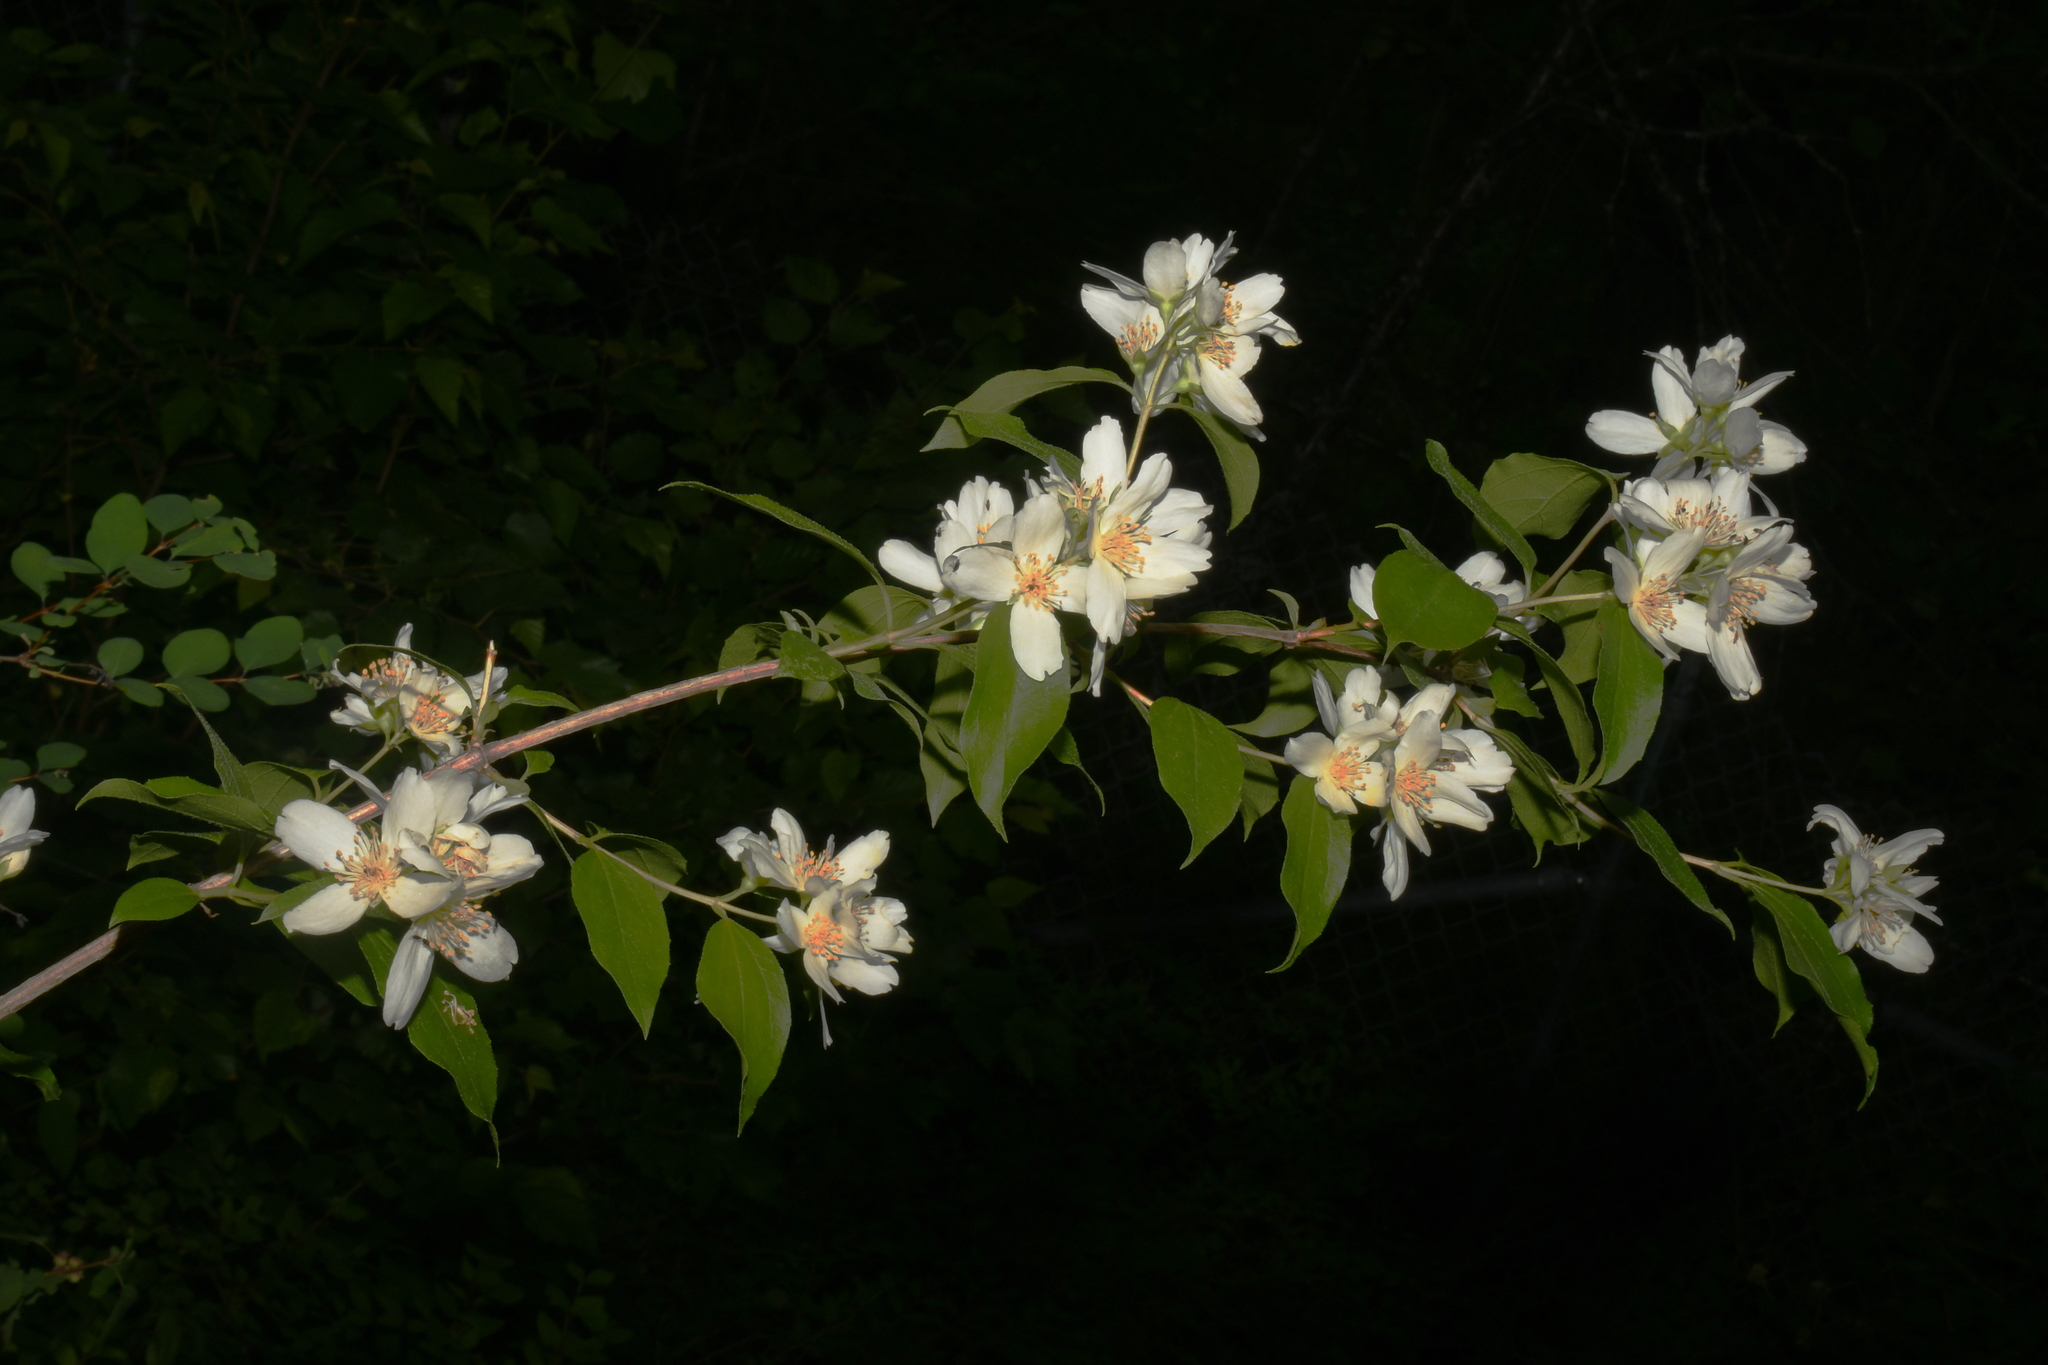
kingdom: Plantae
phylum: Tracheophyta
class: Magnoliopsida
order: Cornales
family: Hydrangeaceae
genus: Philadelphus
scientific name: Philadelphus lewisii
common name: Lewis's mock orange
